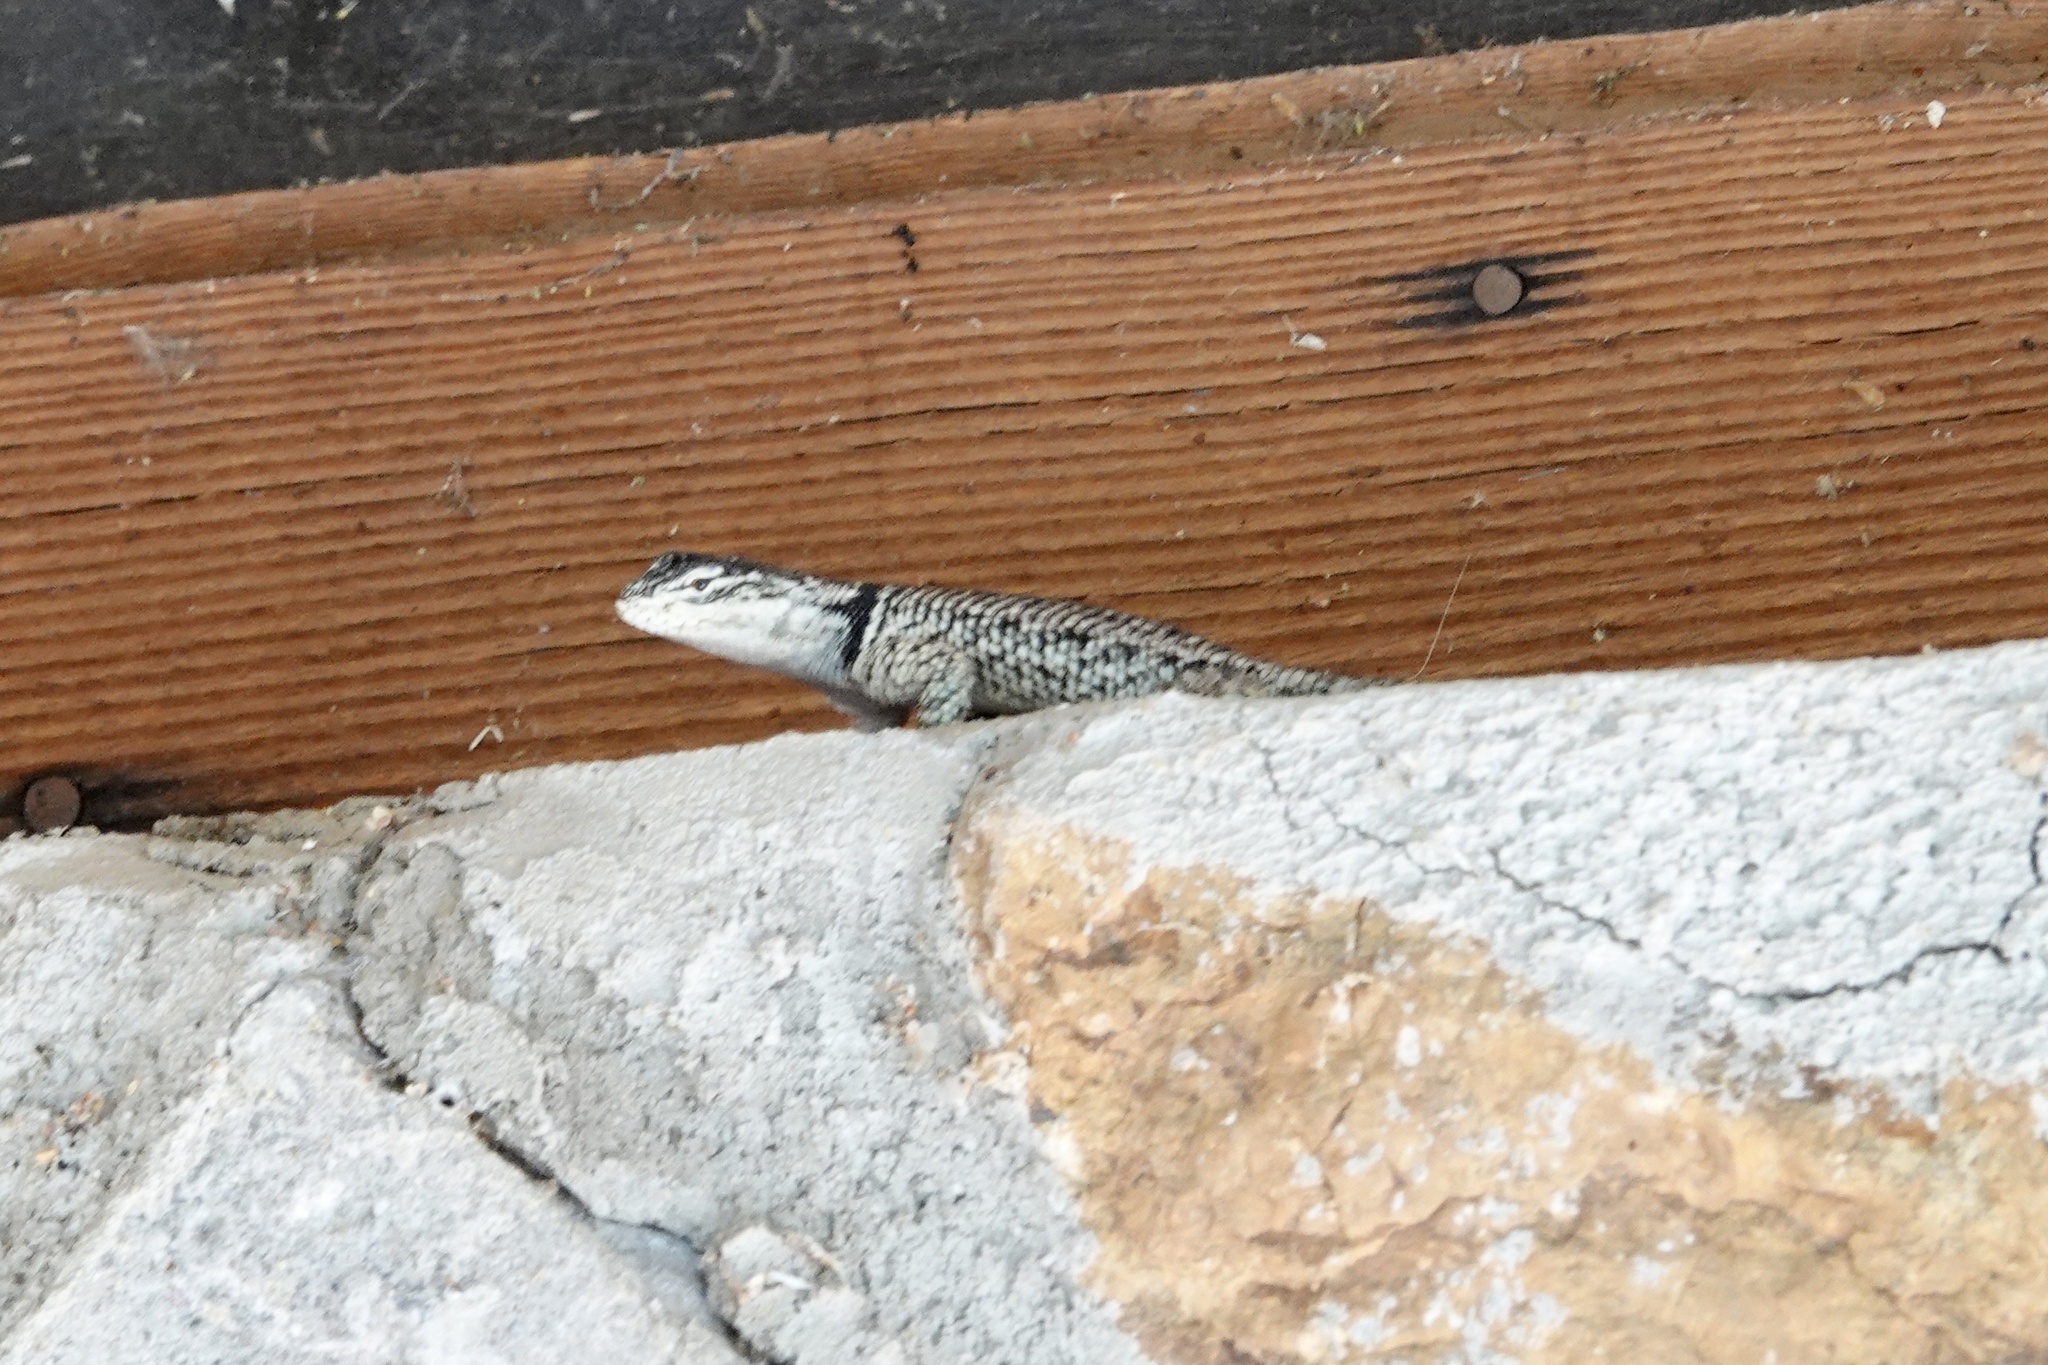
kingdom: Animalia
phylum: Chordata
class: Squamata
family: Phrynosomatidae
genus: Sceloporus
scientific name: Sceloporus jarrovii
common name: Yarrow's spiny lizard
